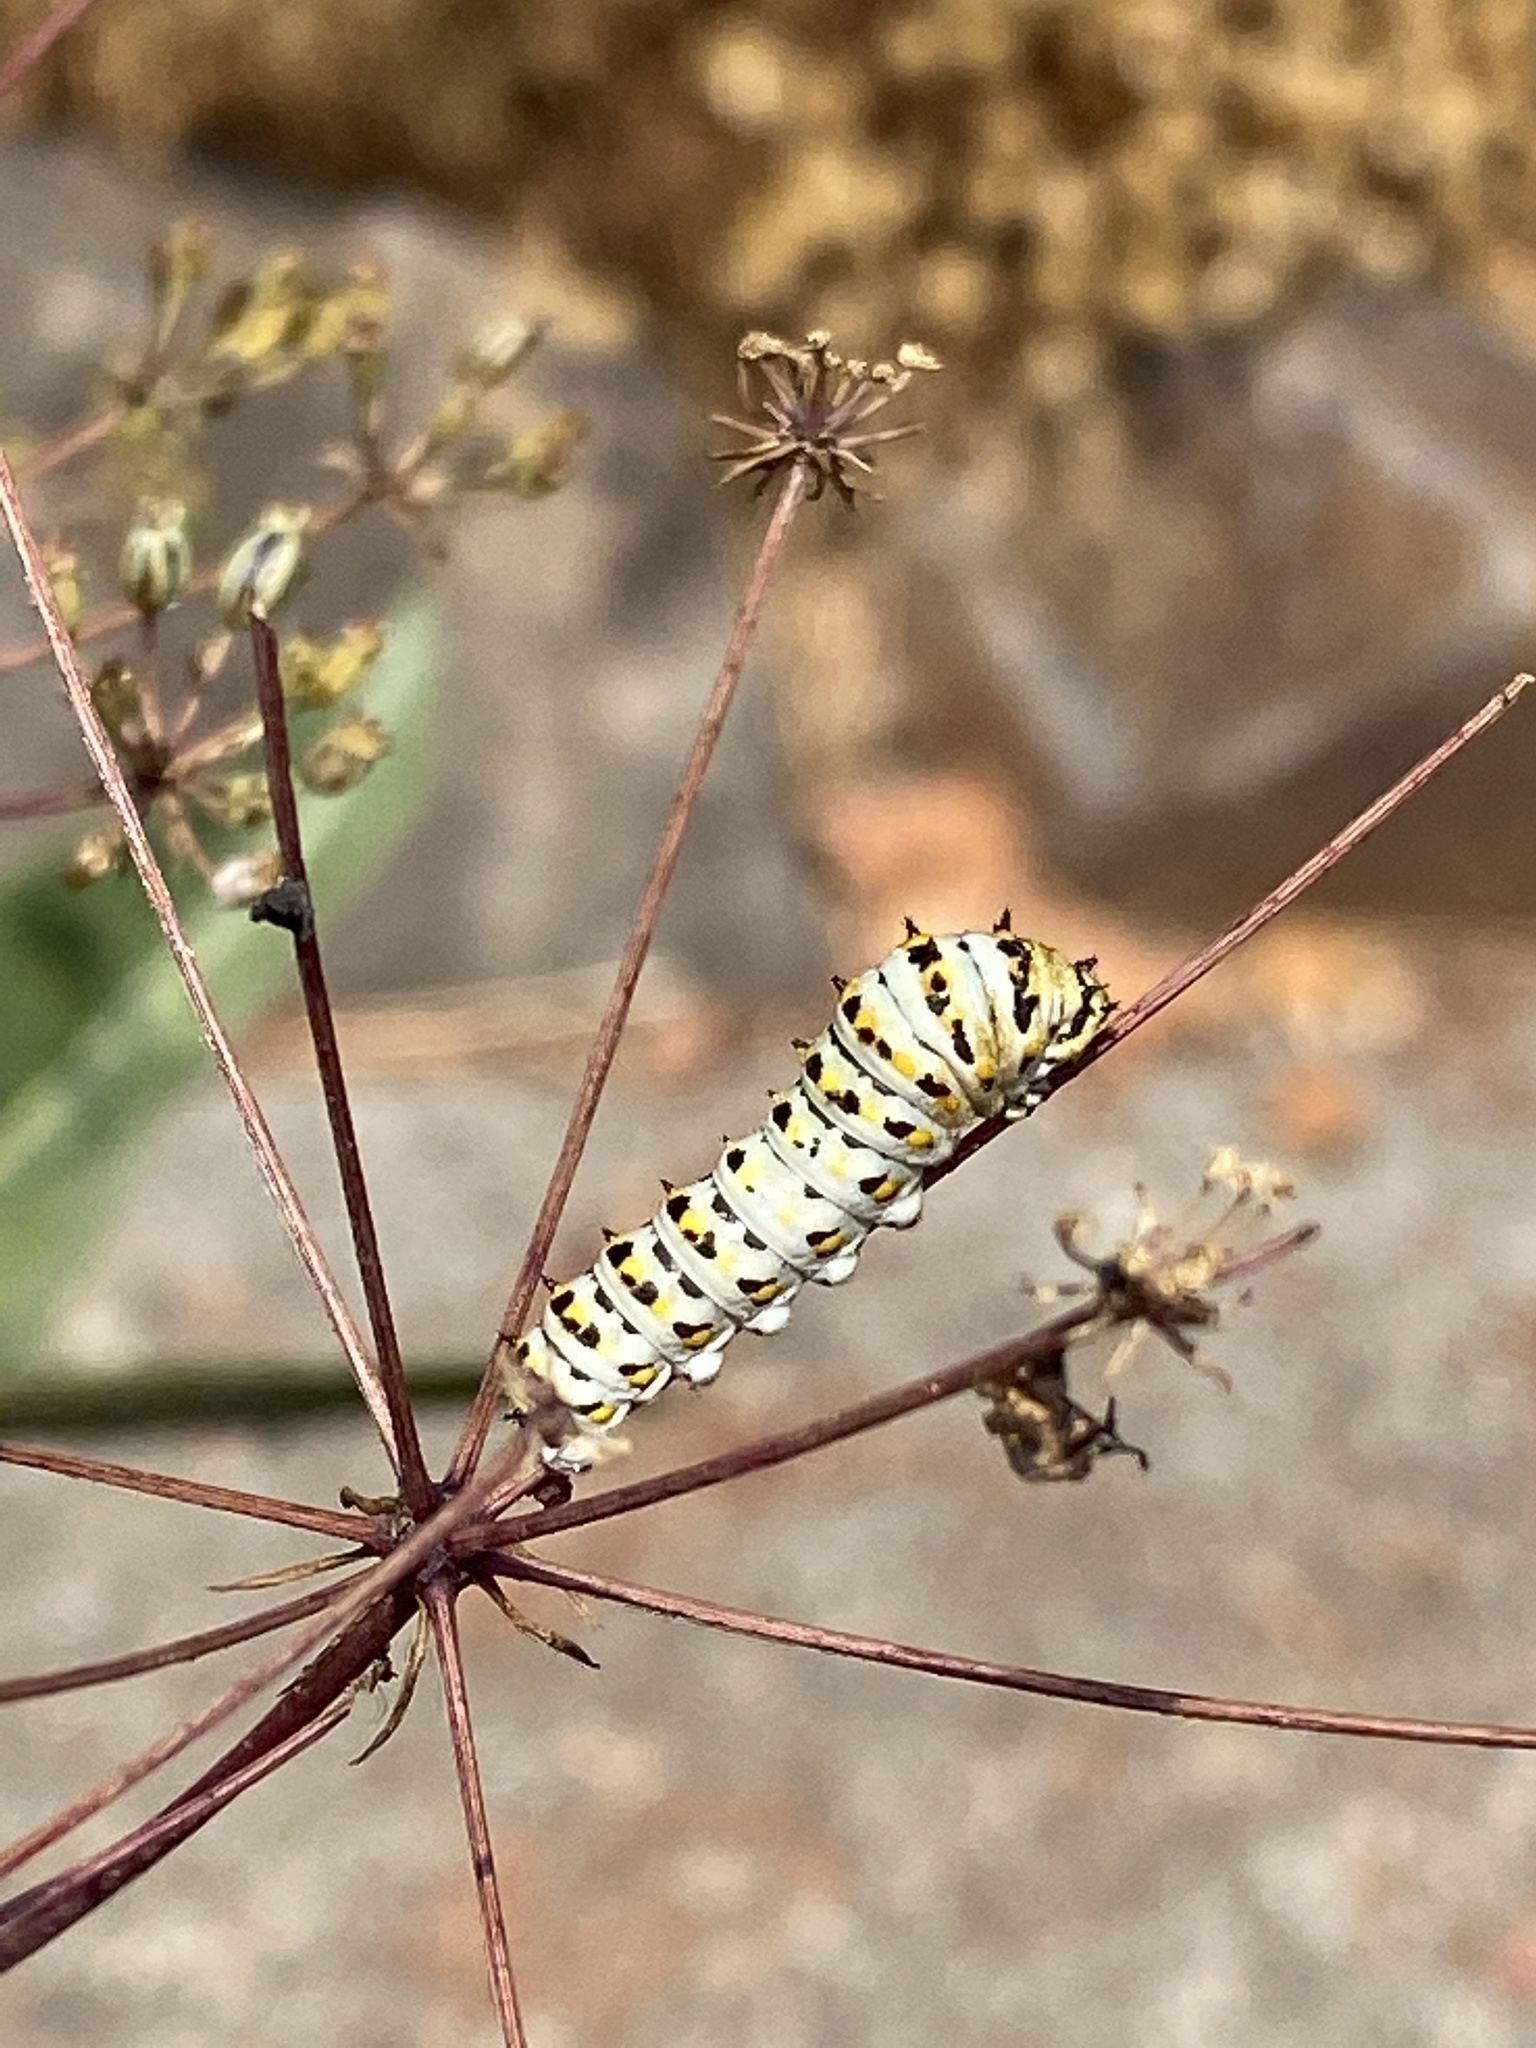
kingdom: Animalia
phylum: Arthropoda
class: Insecta
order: Lepidoptera
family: Papilionidae
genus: Papilio
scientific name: Papilio zelicaon
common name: Anise swallowtail
